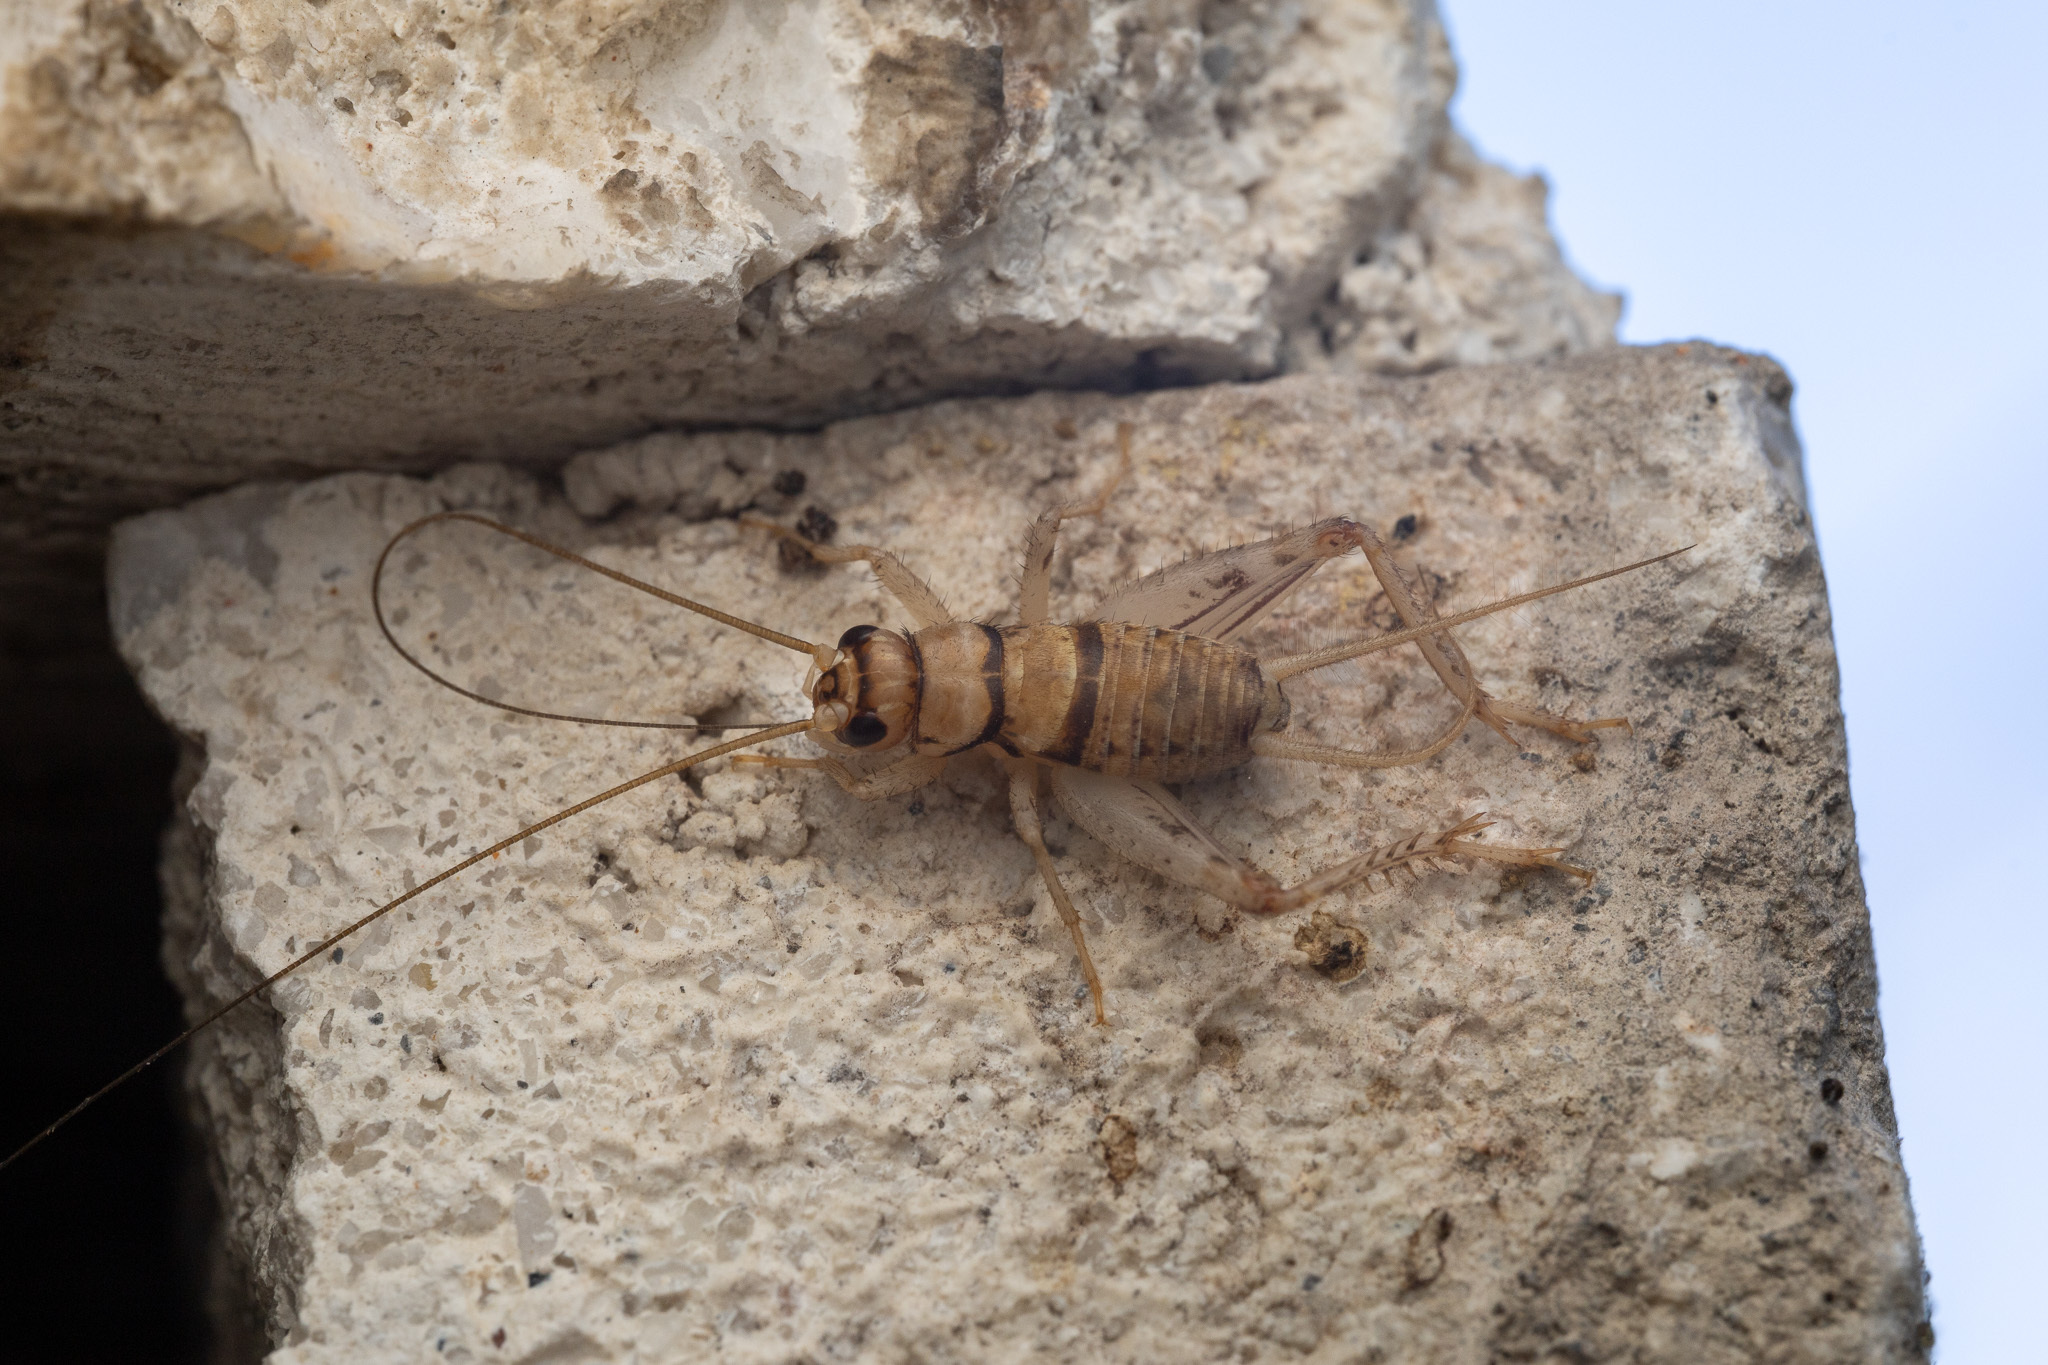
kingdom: Animalia
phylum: Arthropoda
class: Insecta
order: Orthoptera
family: Gryllidae
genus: Gryllodes
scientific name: Gryllodes sigillatus
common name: Tropical house cricket
